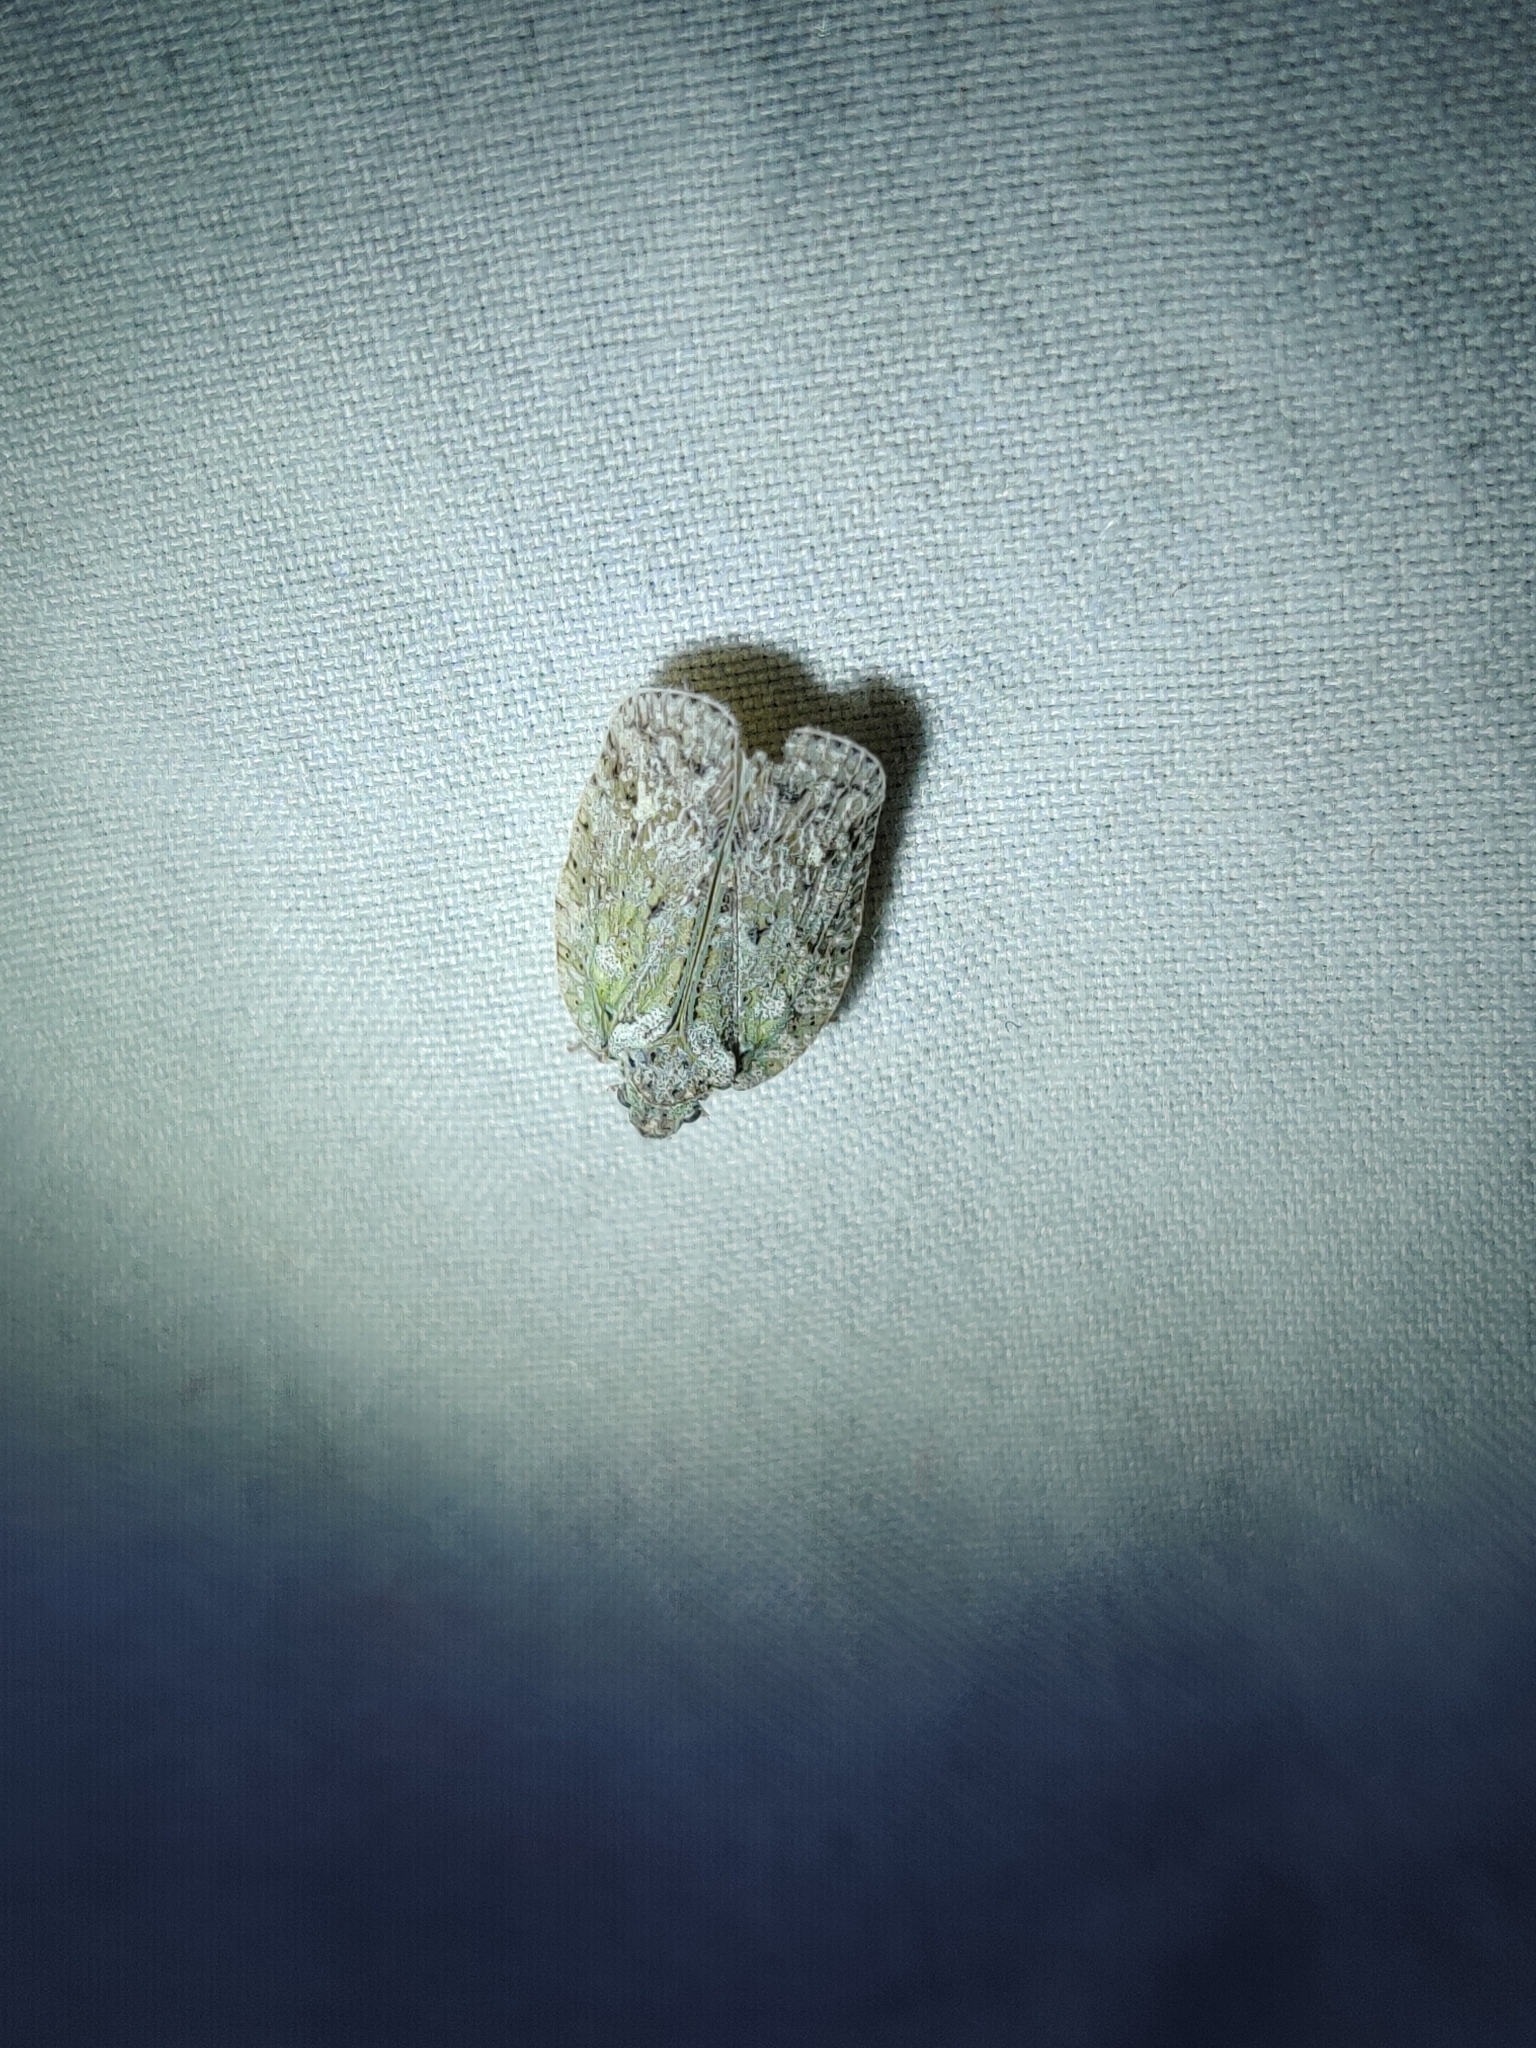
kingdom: Animalia
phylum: Arthropoda
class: Insecta
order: Hemiptera
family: Flatidae
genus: Flatoidinus
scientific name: Flatoidinus punctatus
